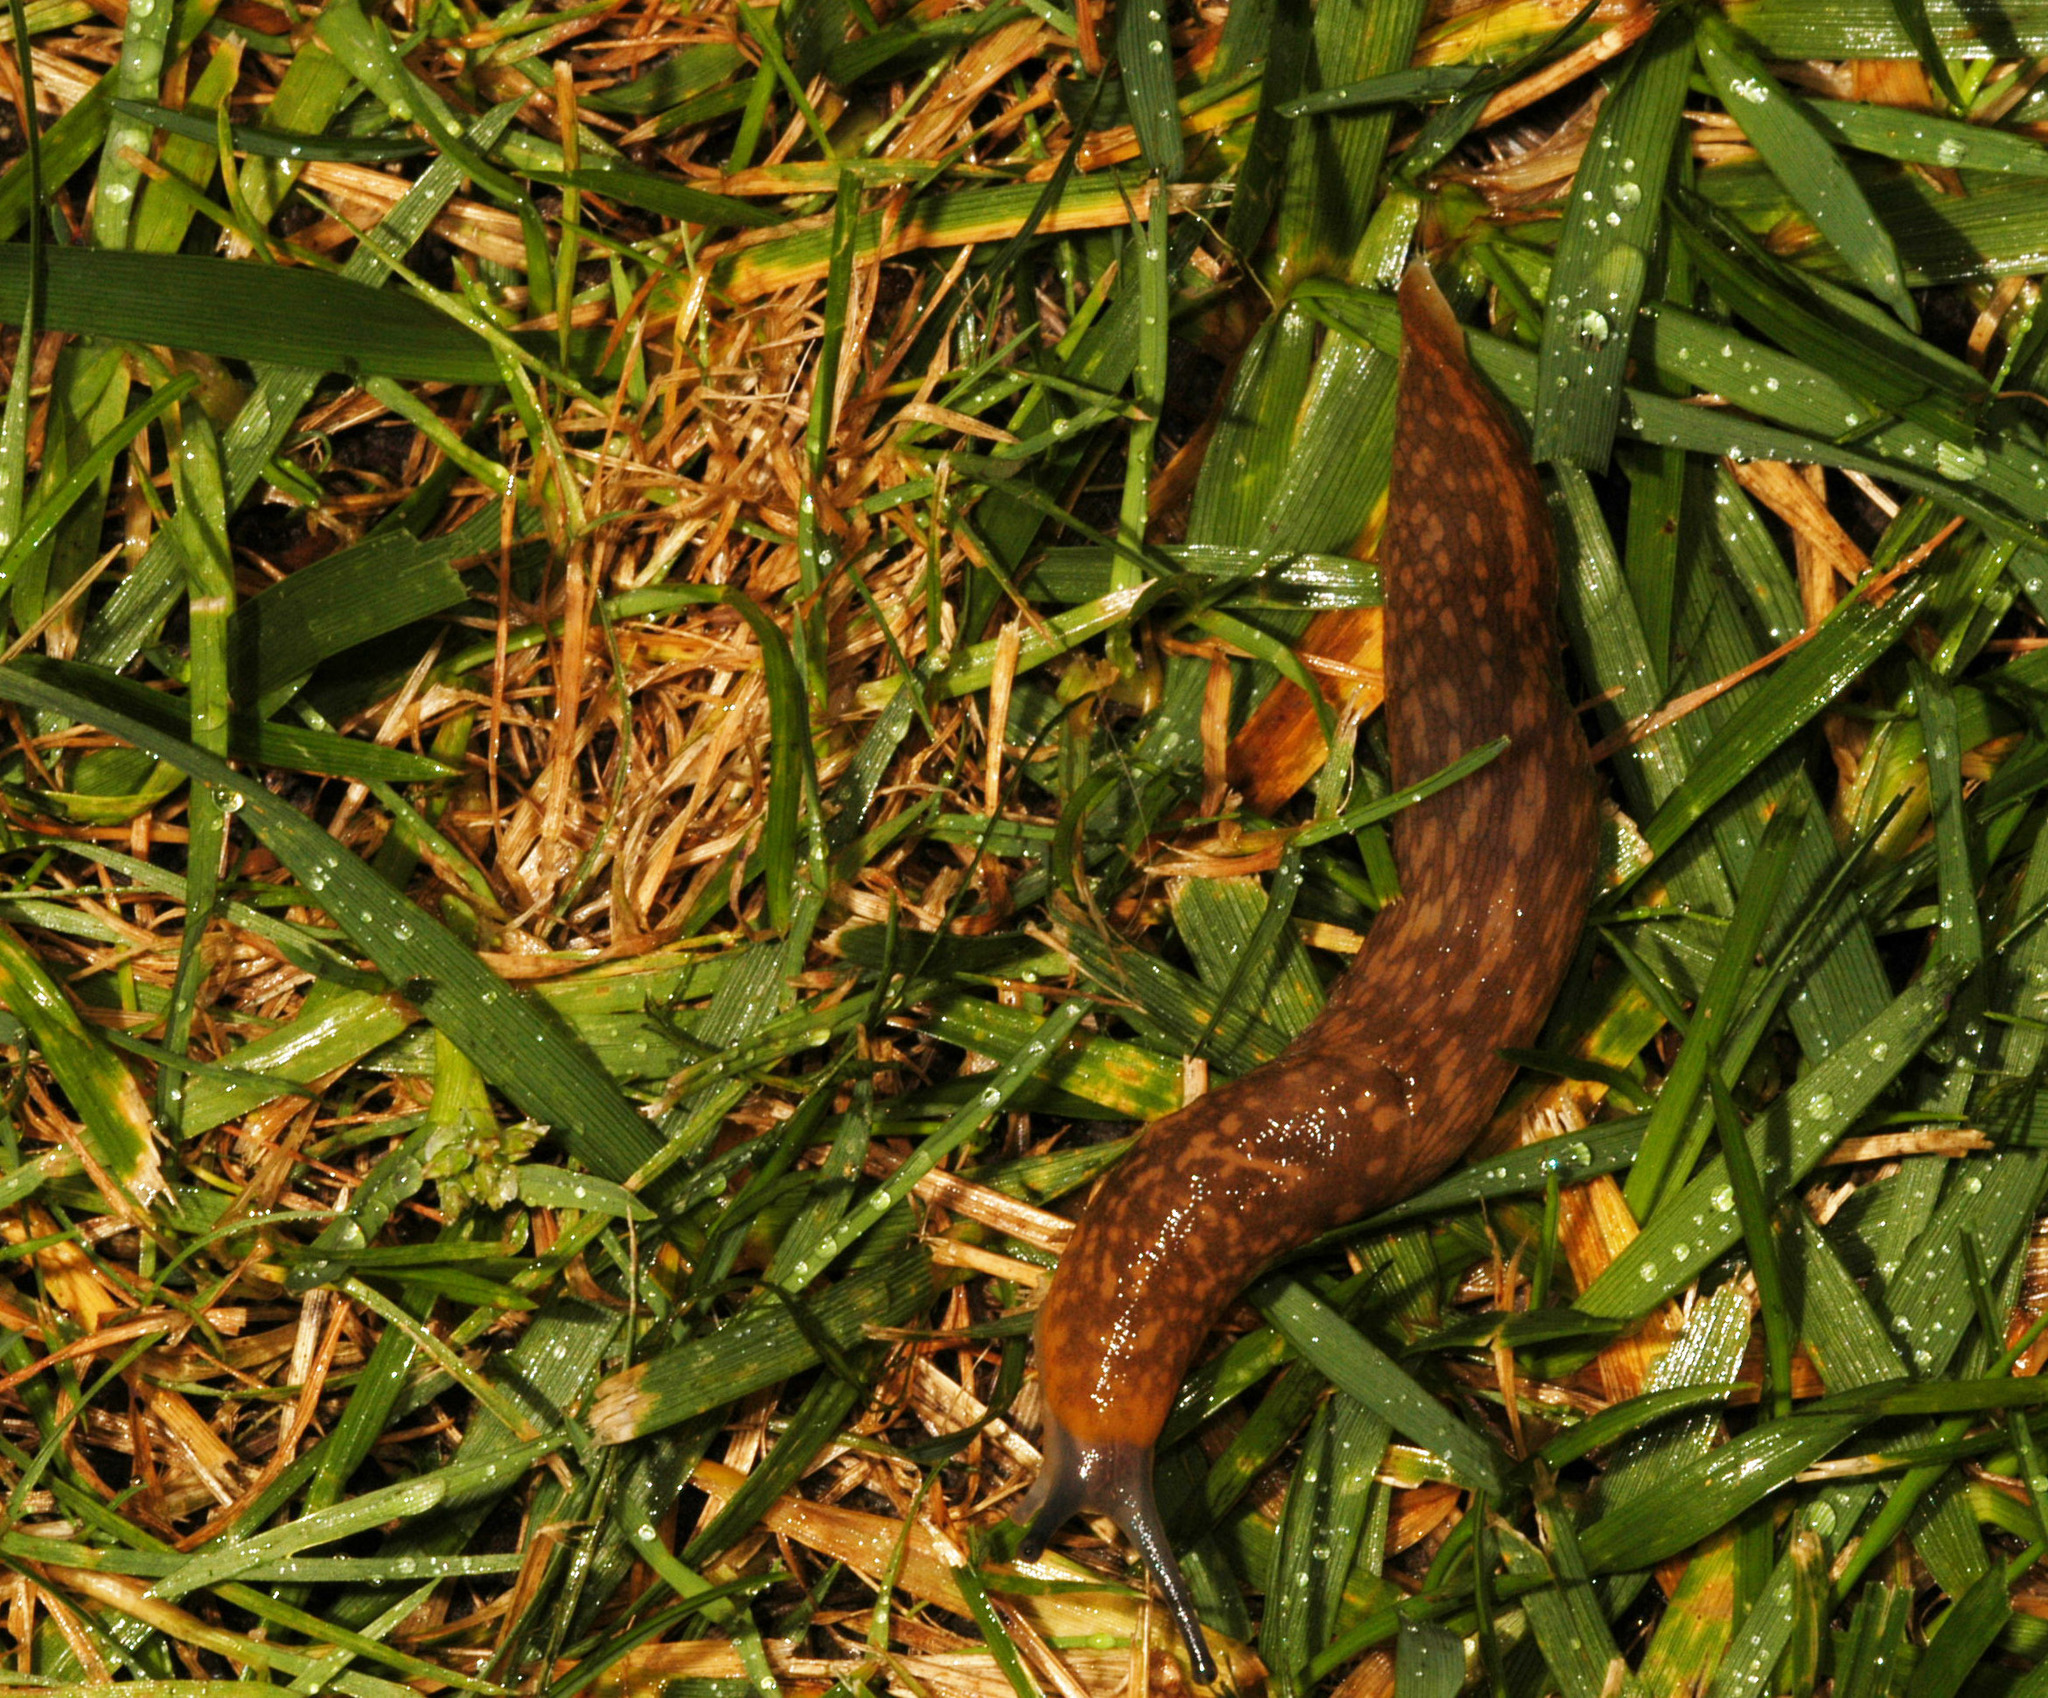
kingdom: Animalia
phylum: Mollusca
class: Gastropoda
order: Stylommatophora
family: Limacidae
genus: Limacus
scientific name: Limacus flavus
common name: Yellow gardenslug
